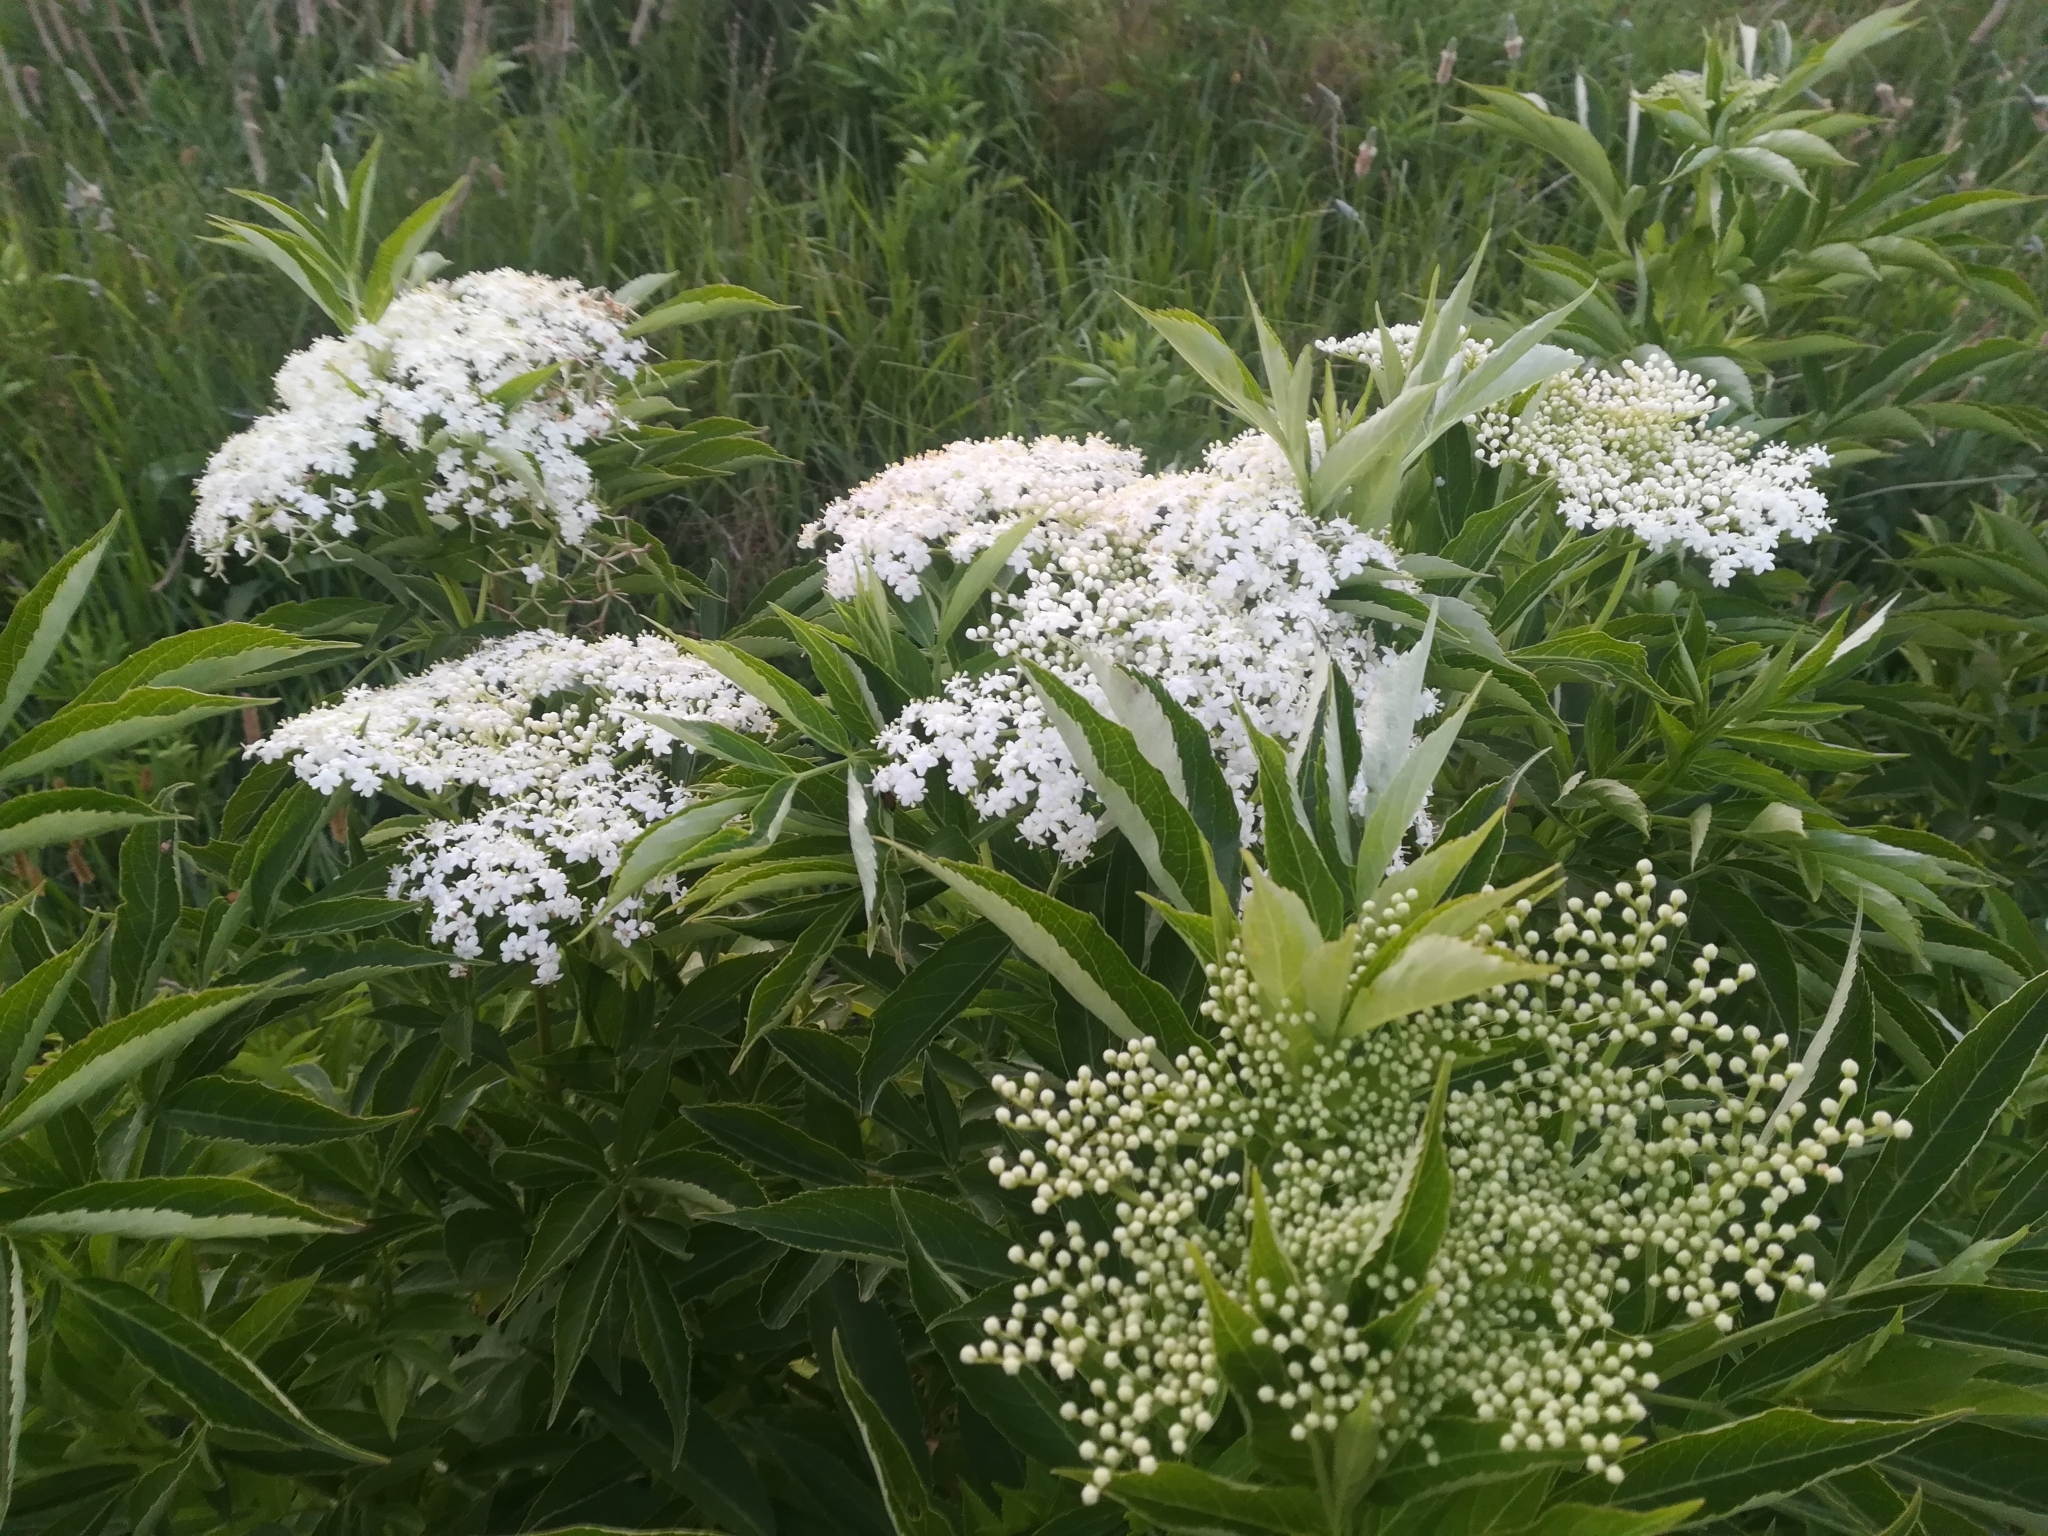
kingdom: Plantae
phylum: Tracheophyta
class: Magnoliopsida
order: Dipsacales
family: Viburnaceae
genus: Sambucus
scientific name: Sambucus nigra
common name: Elder
